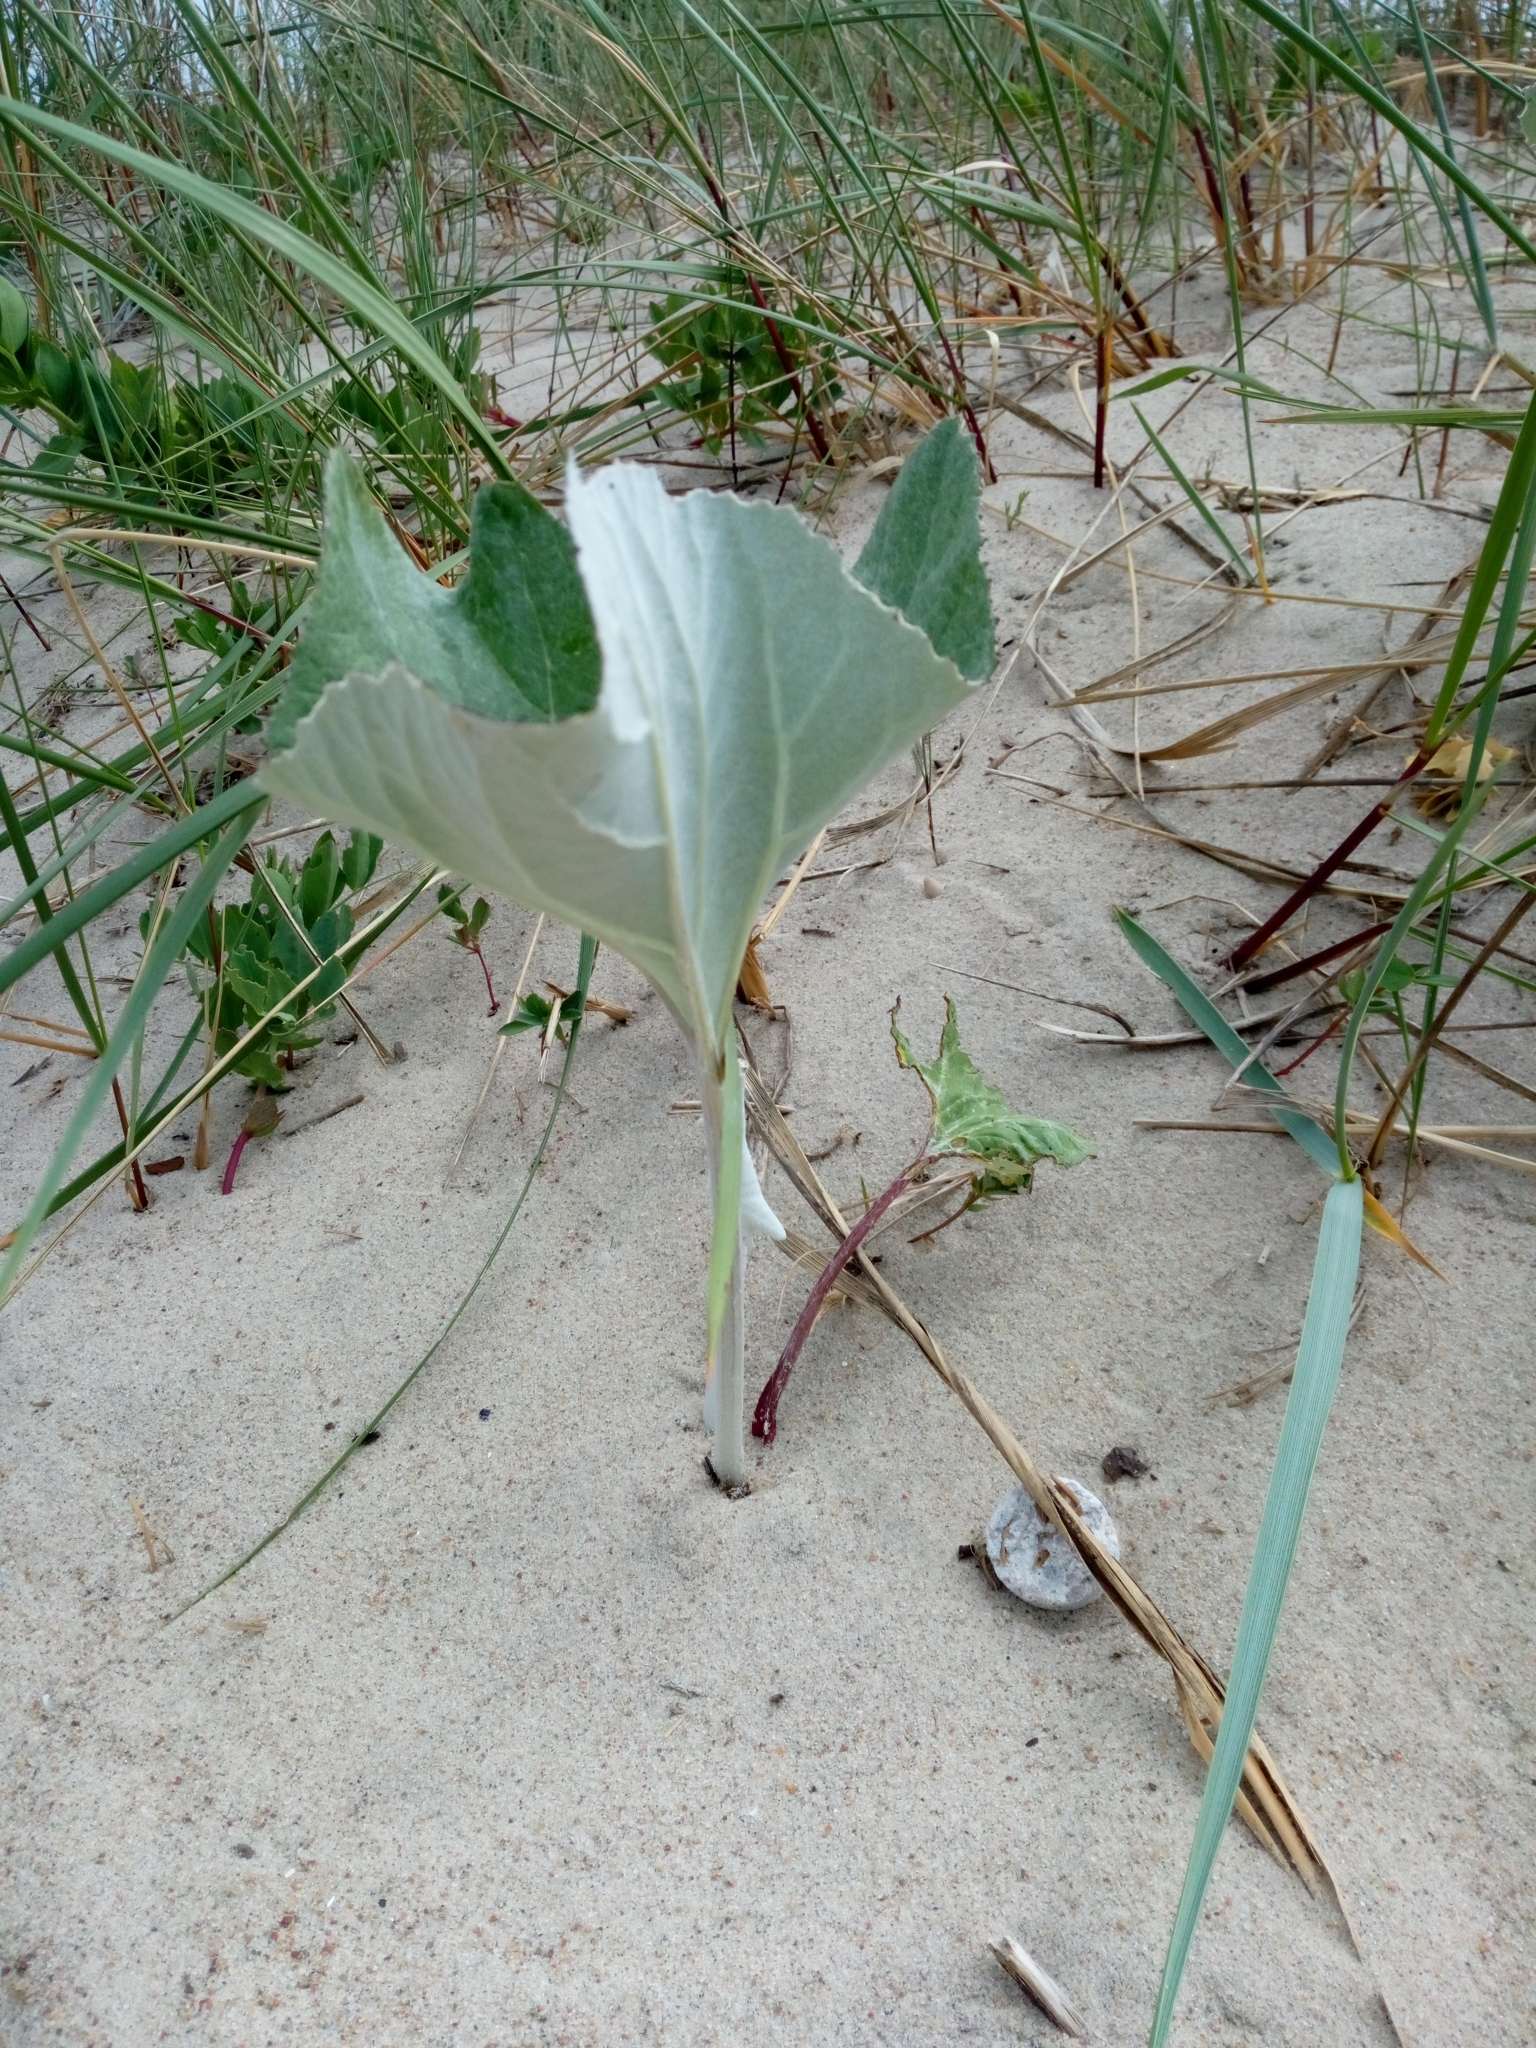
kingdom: Plantae
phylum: Tracheophyta
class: Magnoliopsida
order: Asterales
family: Asteraceae
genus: Petasites
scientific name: Petasites spurius
